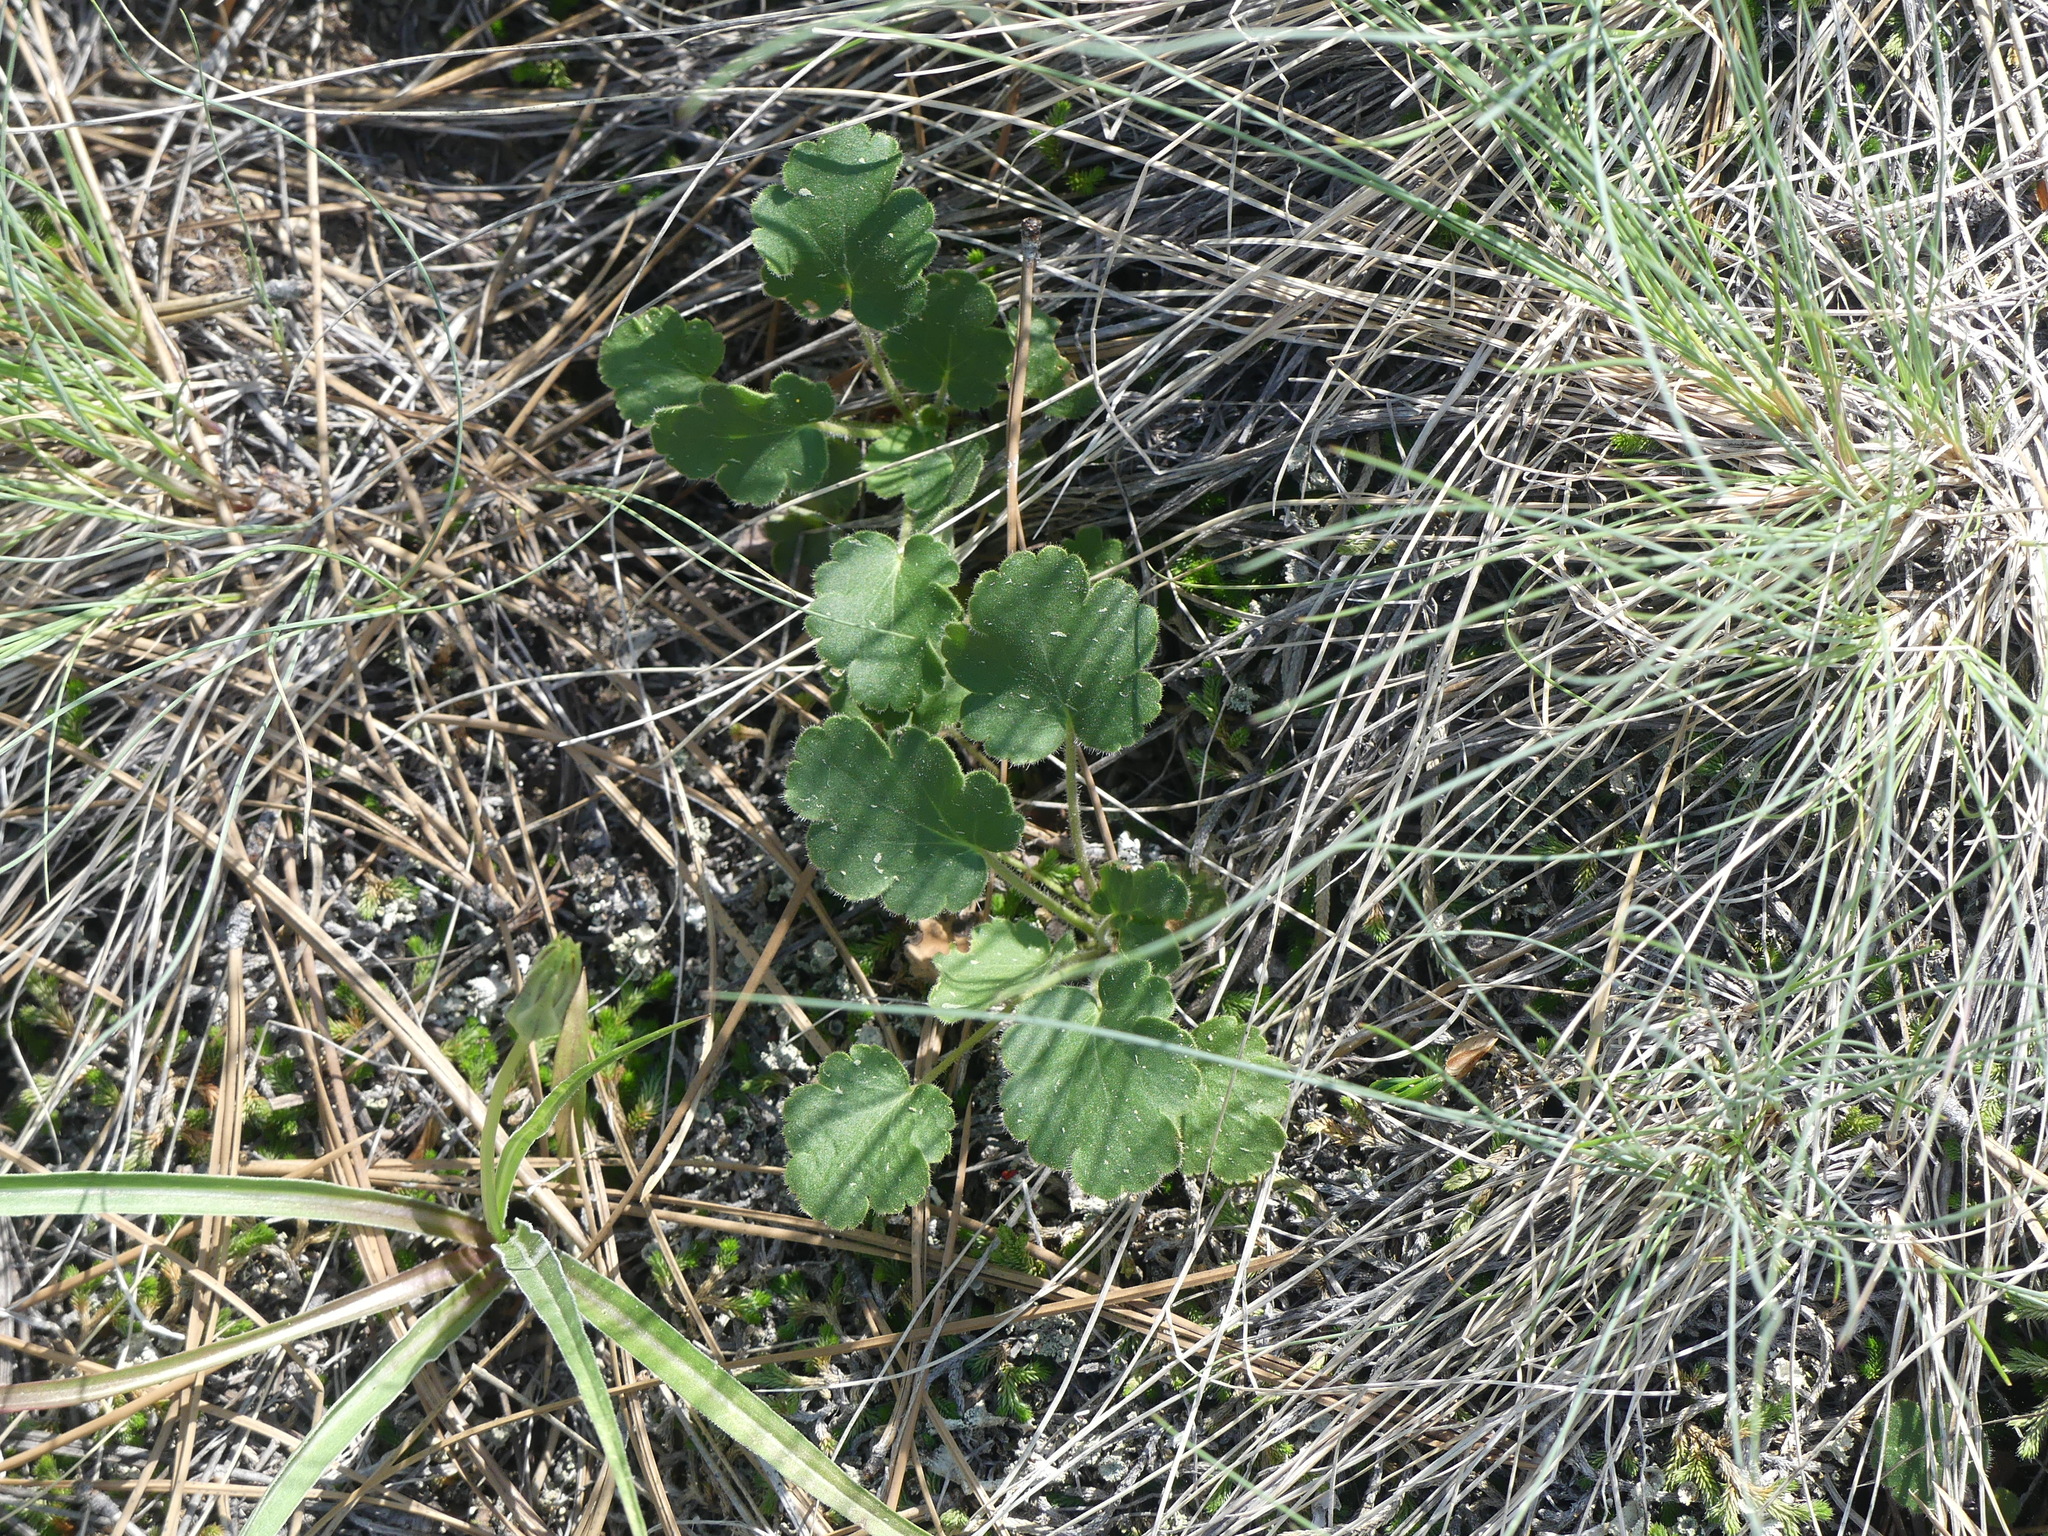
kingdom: Plantae
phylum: Tracheophyta
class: Magnoliopsida
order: Saxifragales
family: Saxifragaceae
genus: Heuchera
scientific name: Heuchera cylindrica
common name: Mat alumroot
